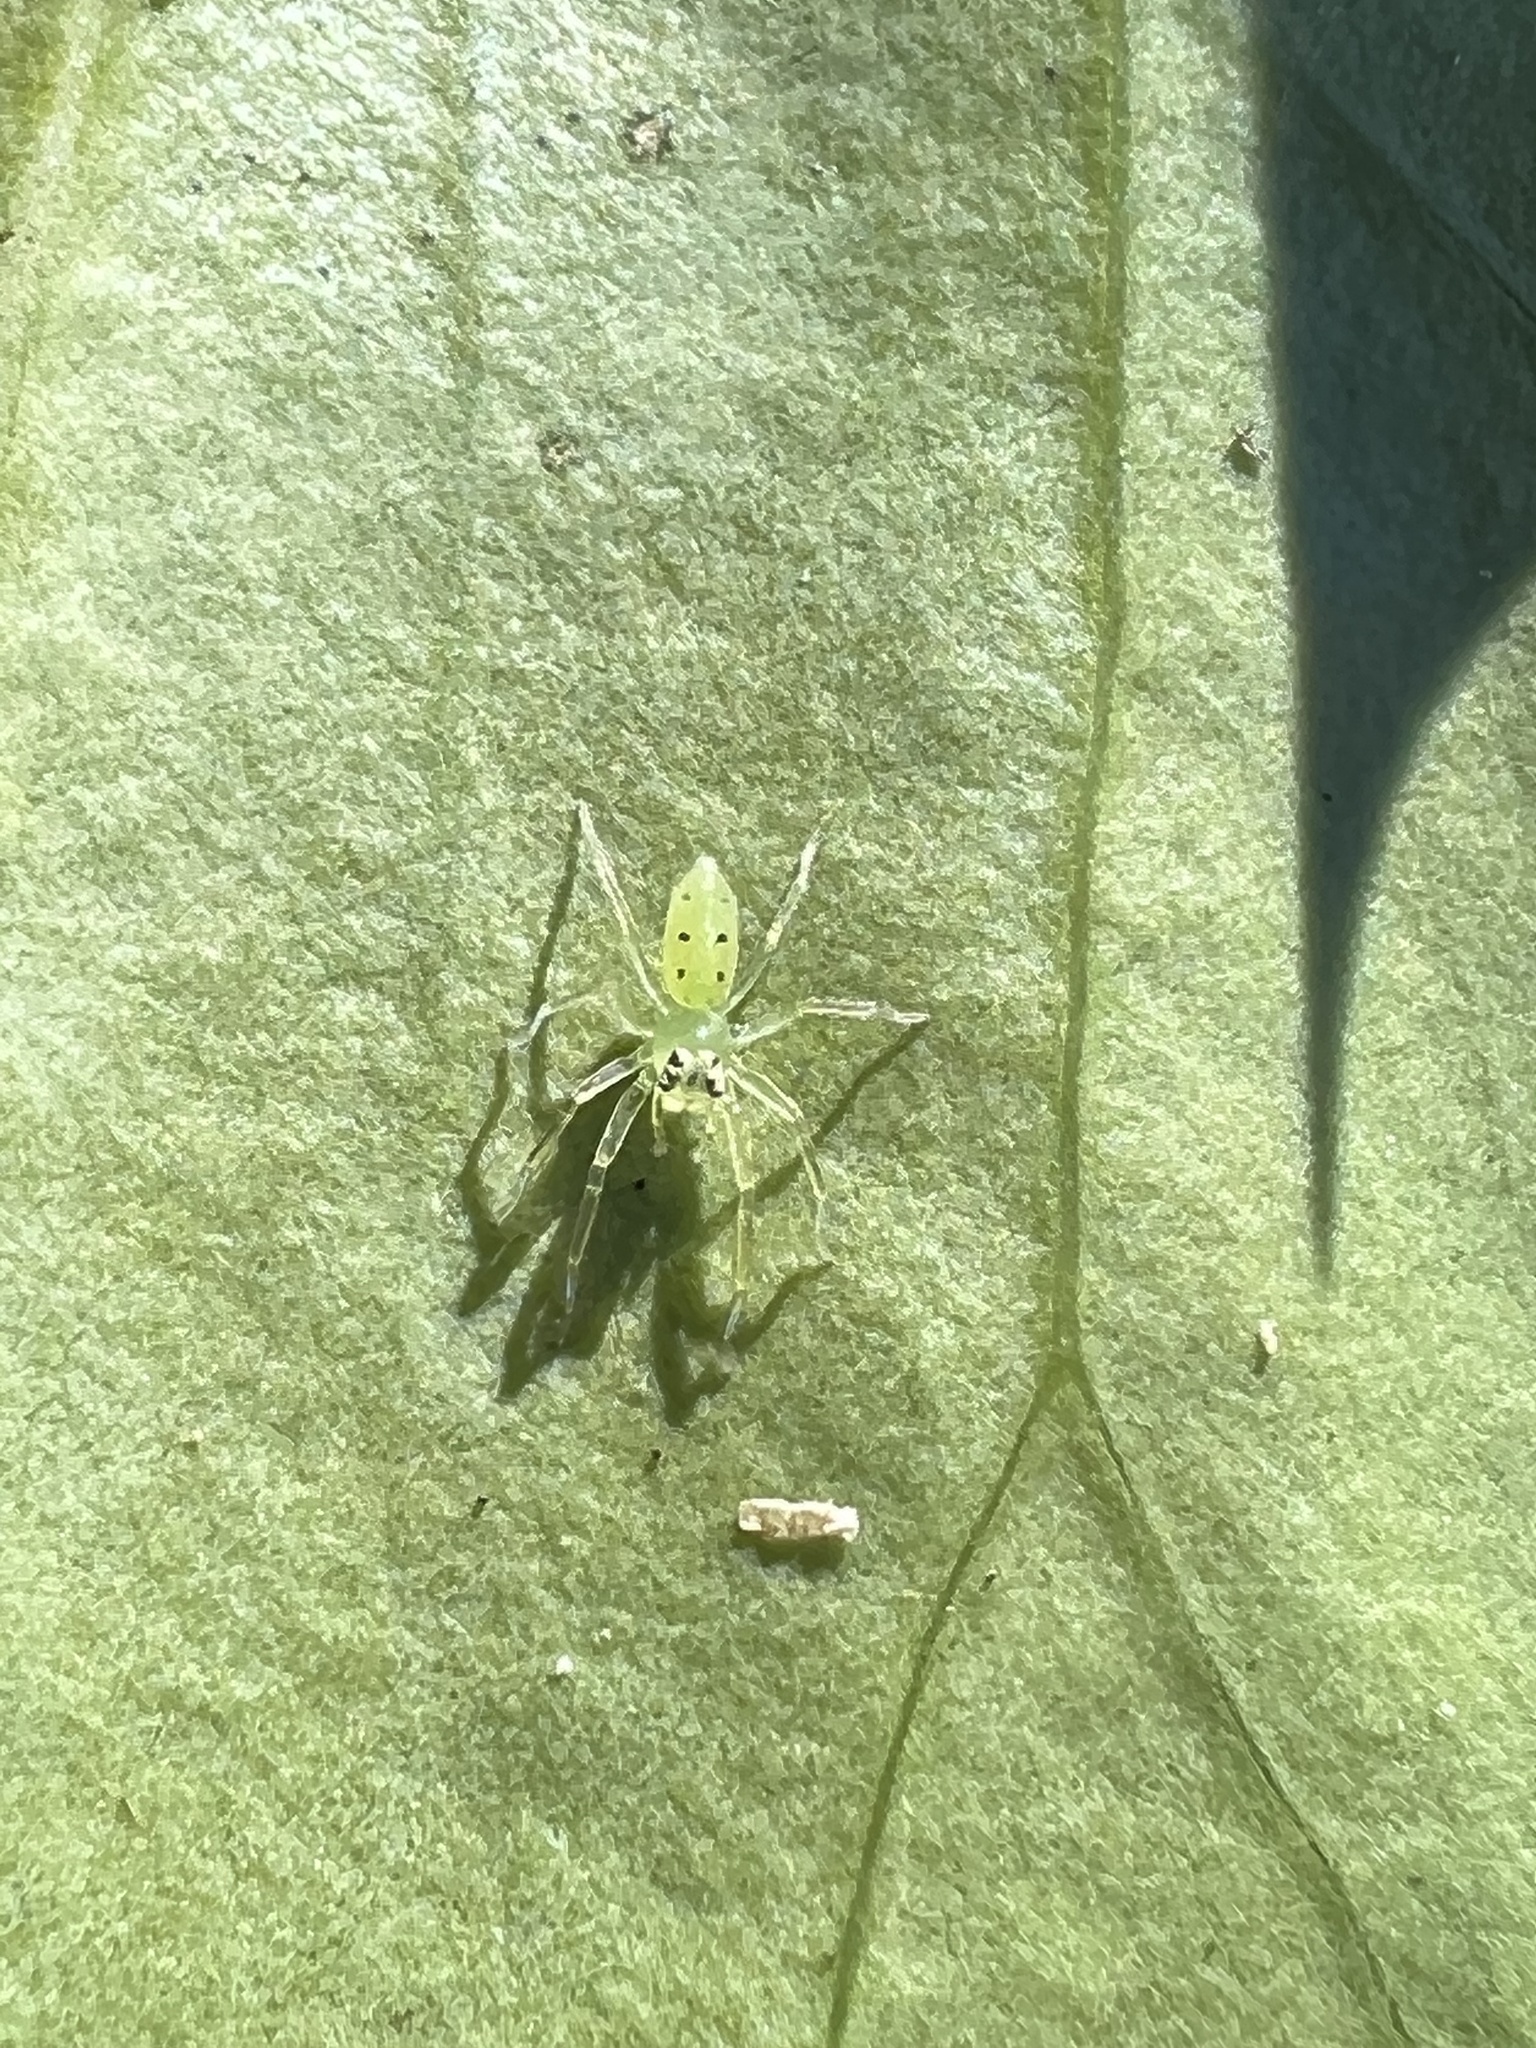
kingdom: Animalia
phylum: Arthropoda
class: Arachnida
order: Araneae
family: Salticidae
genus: Lyssomanes
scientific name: Lyssomanes viridis
